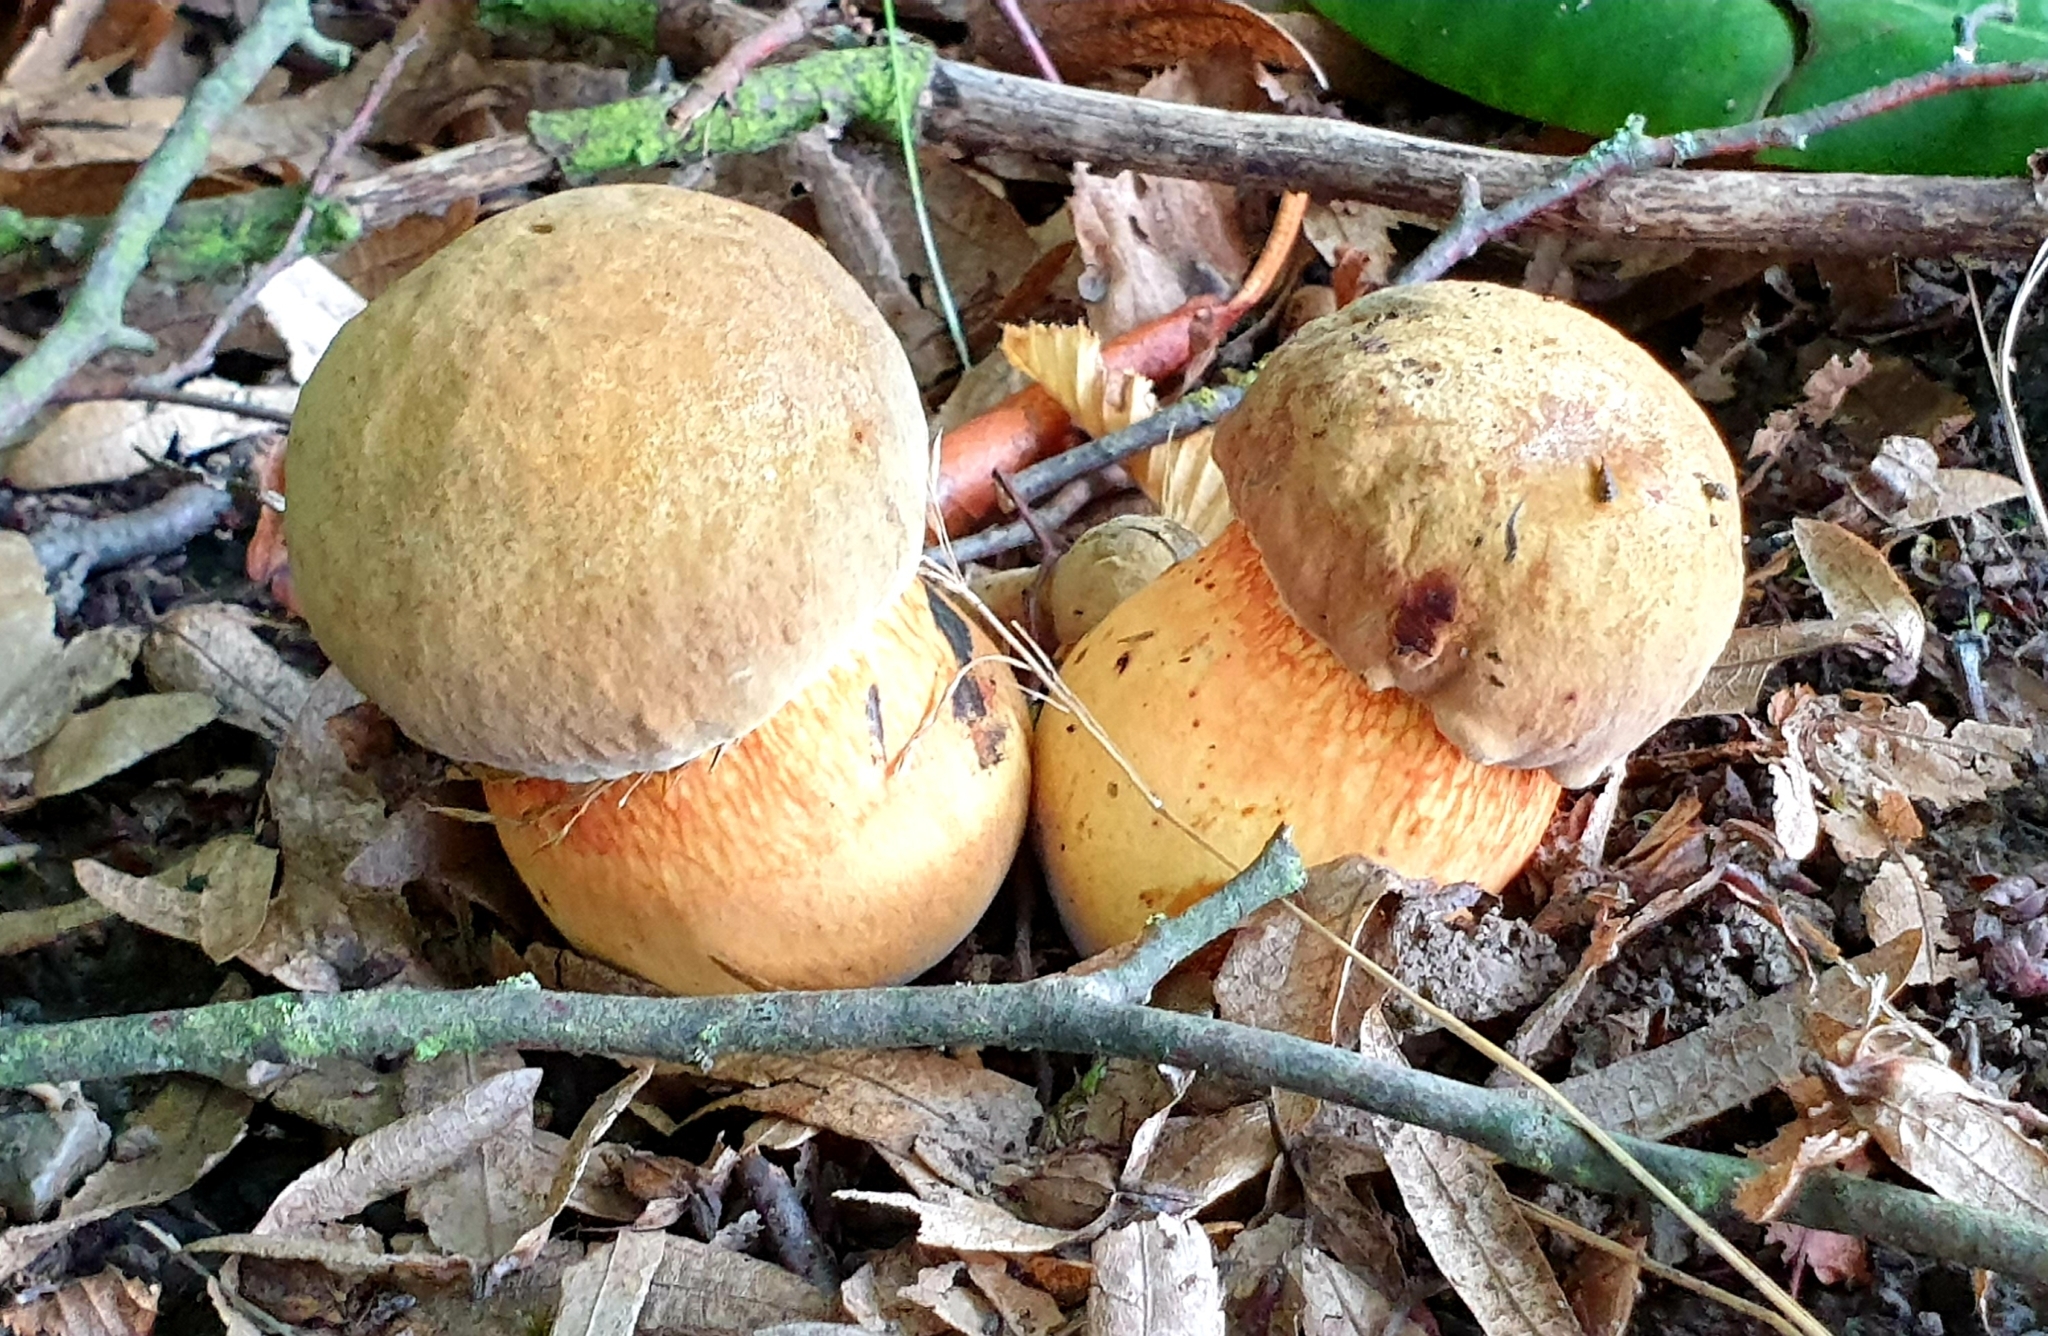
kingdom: Fungi
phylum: Basidiomycota
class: Agaricomycetes
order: Boletales
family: Boletaceae
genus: Suillellus
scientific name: Suillellus luridus
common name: Lurid bolete
